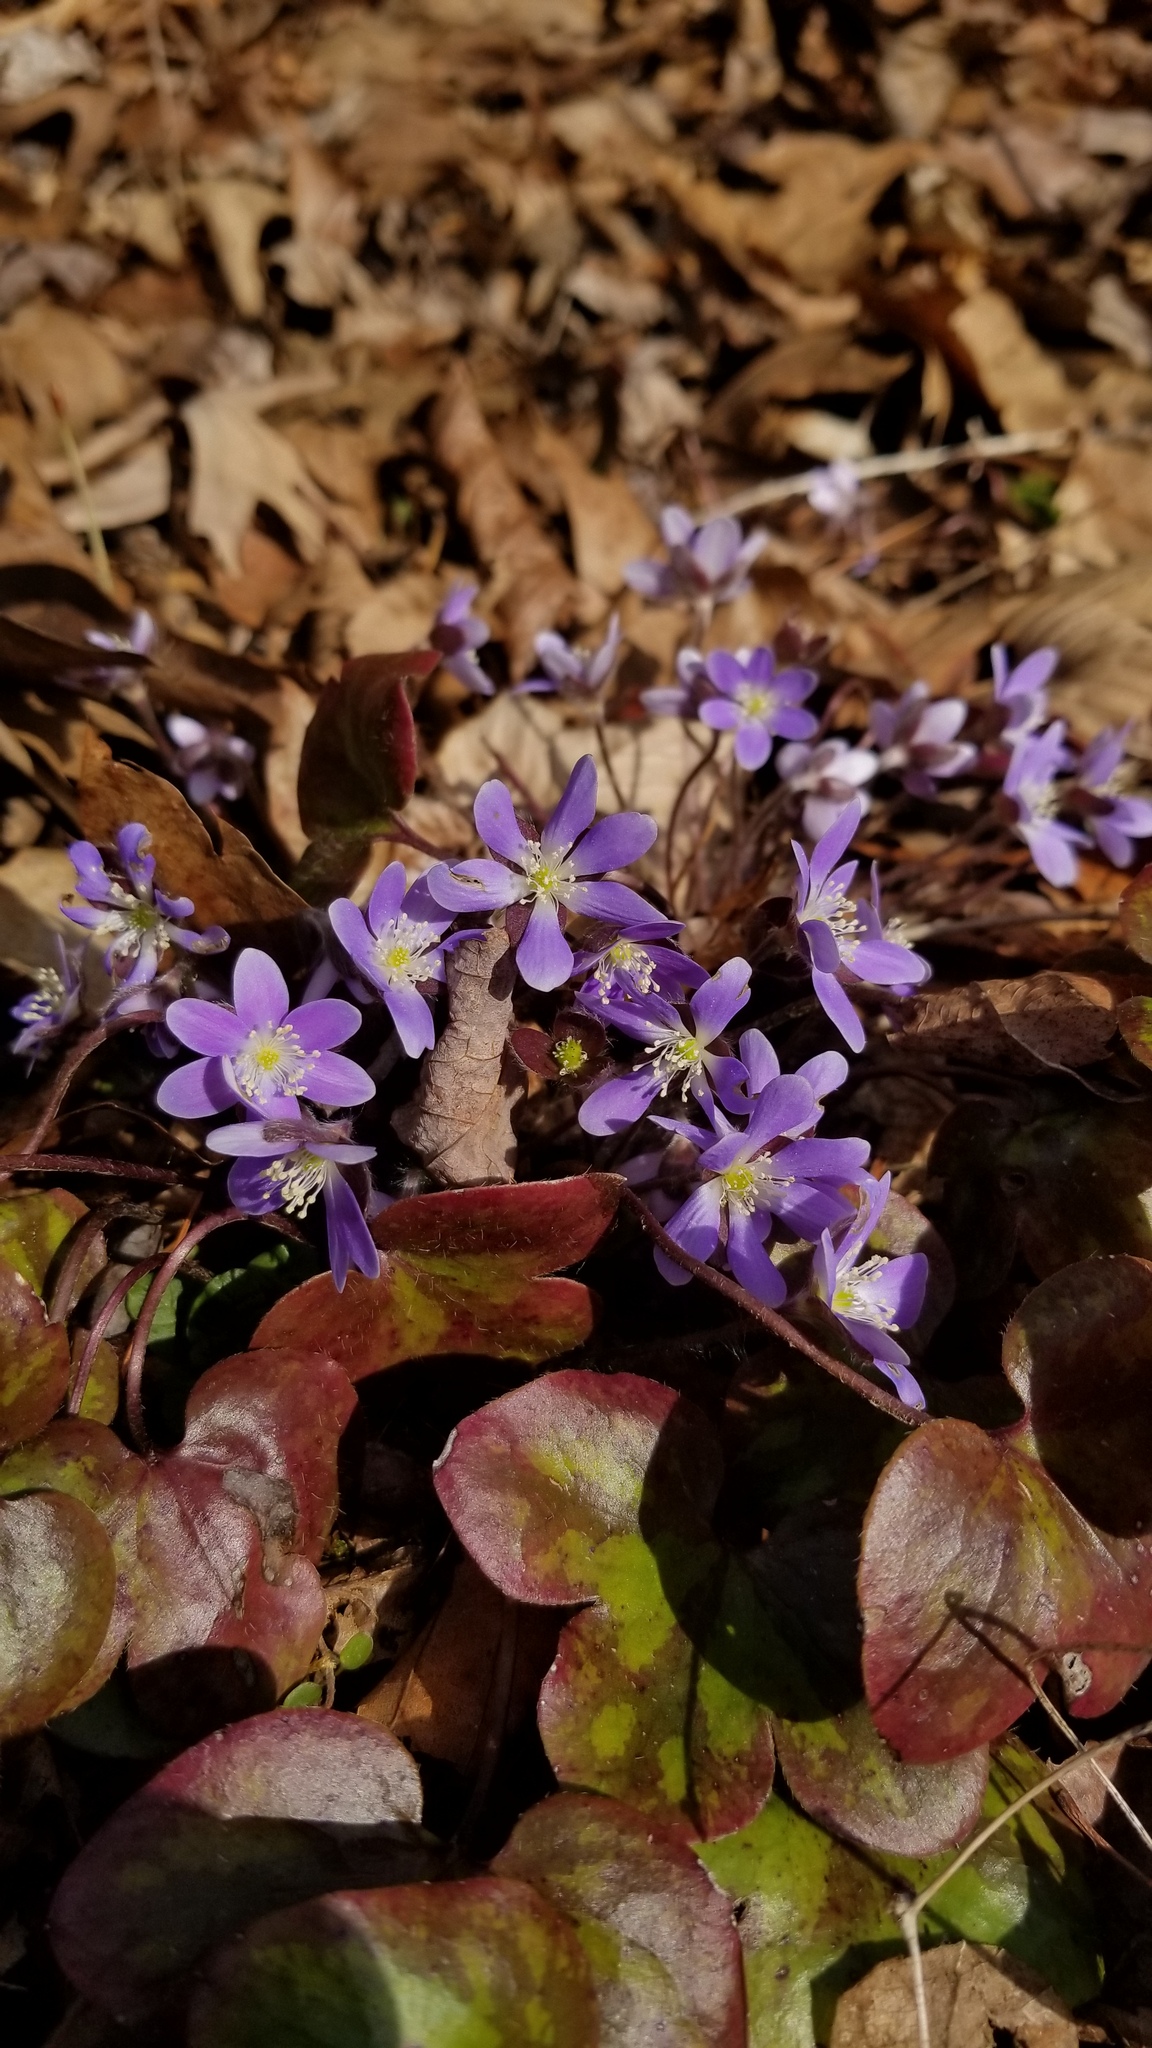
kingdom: Plantae
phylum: Tracheophyta
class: Magnoliopsida
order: Ranunculales
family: Ranunculaceae
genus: Hepatica
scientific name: Hepatica americana
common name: American hepatica
